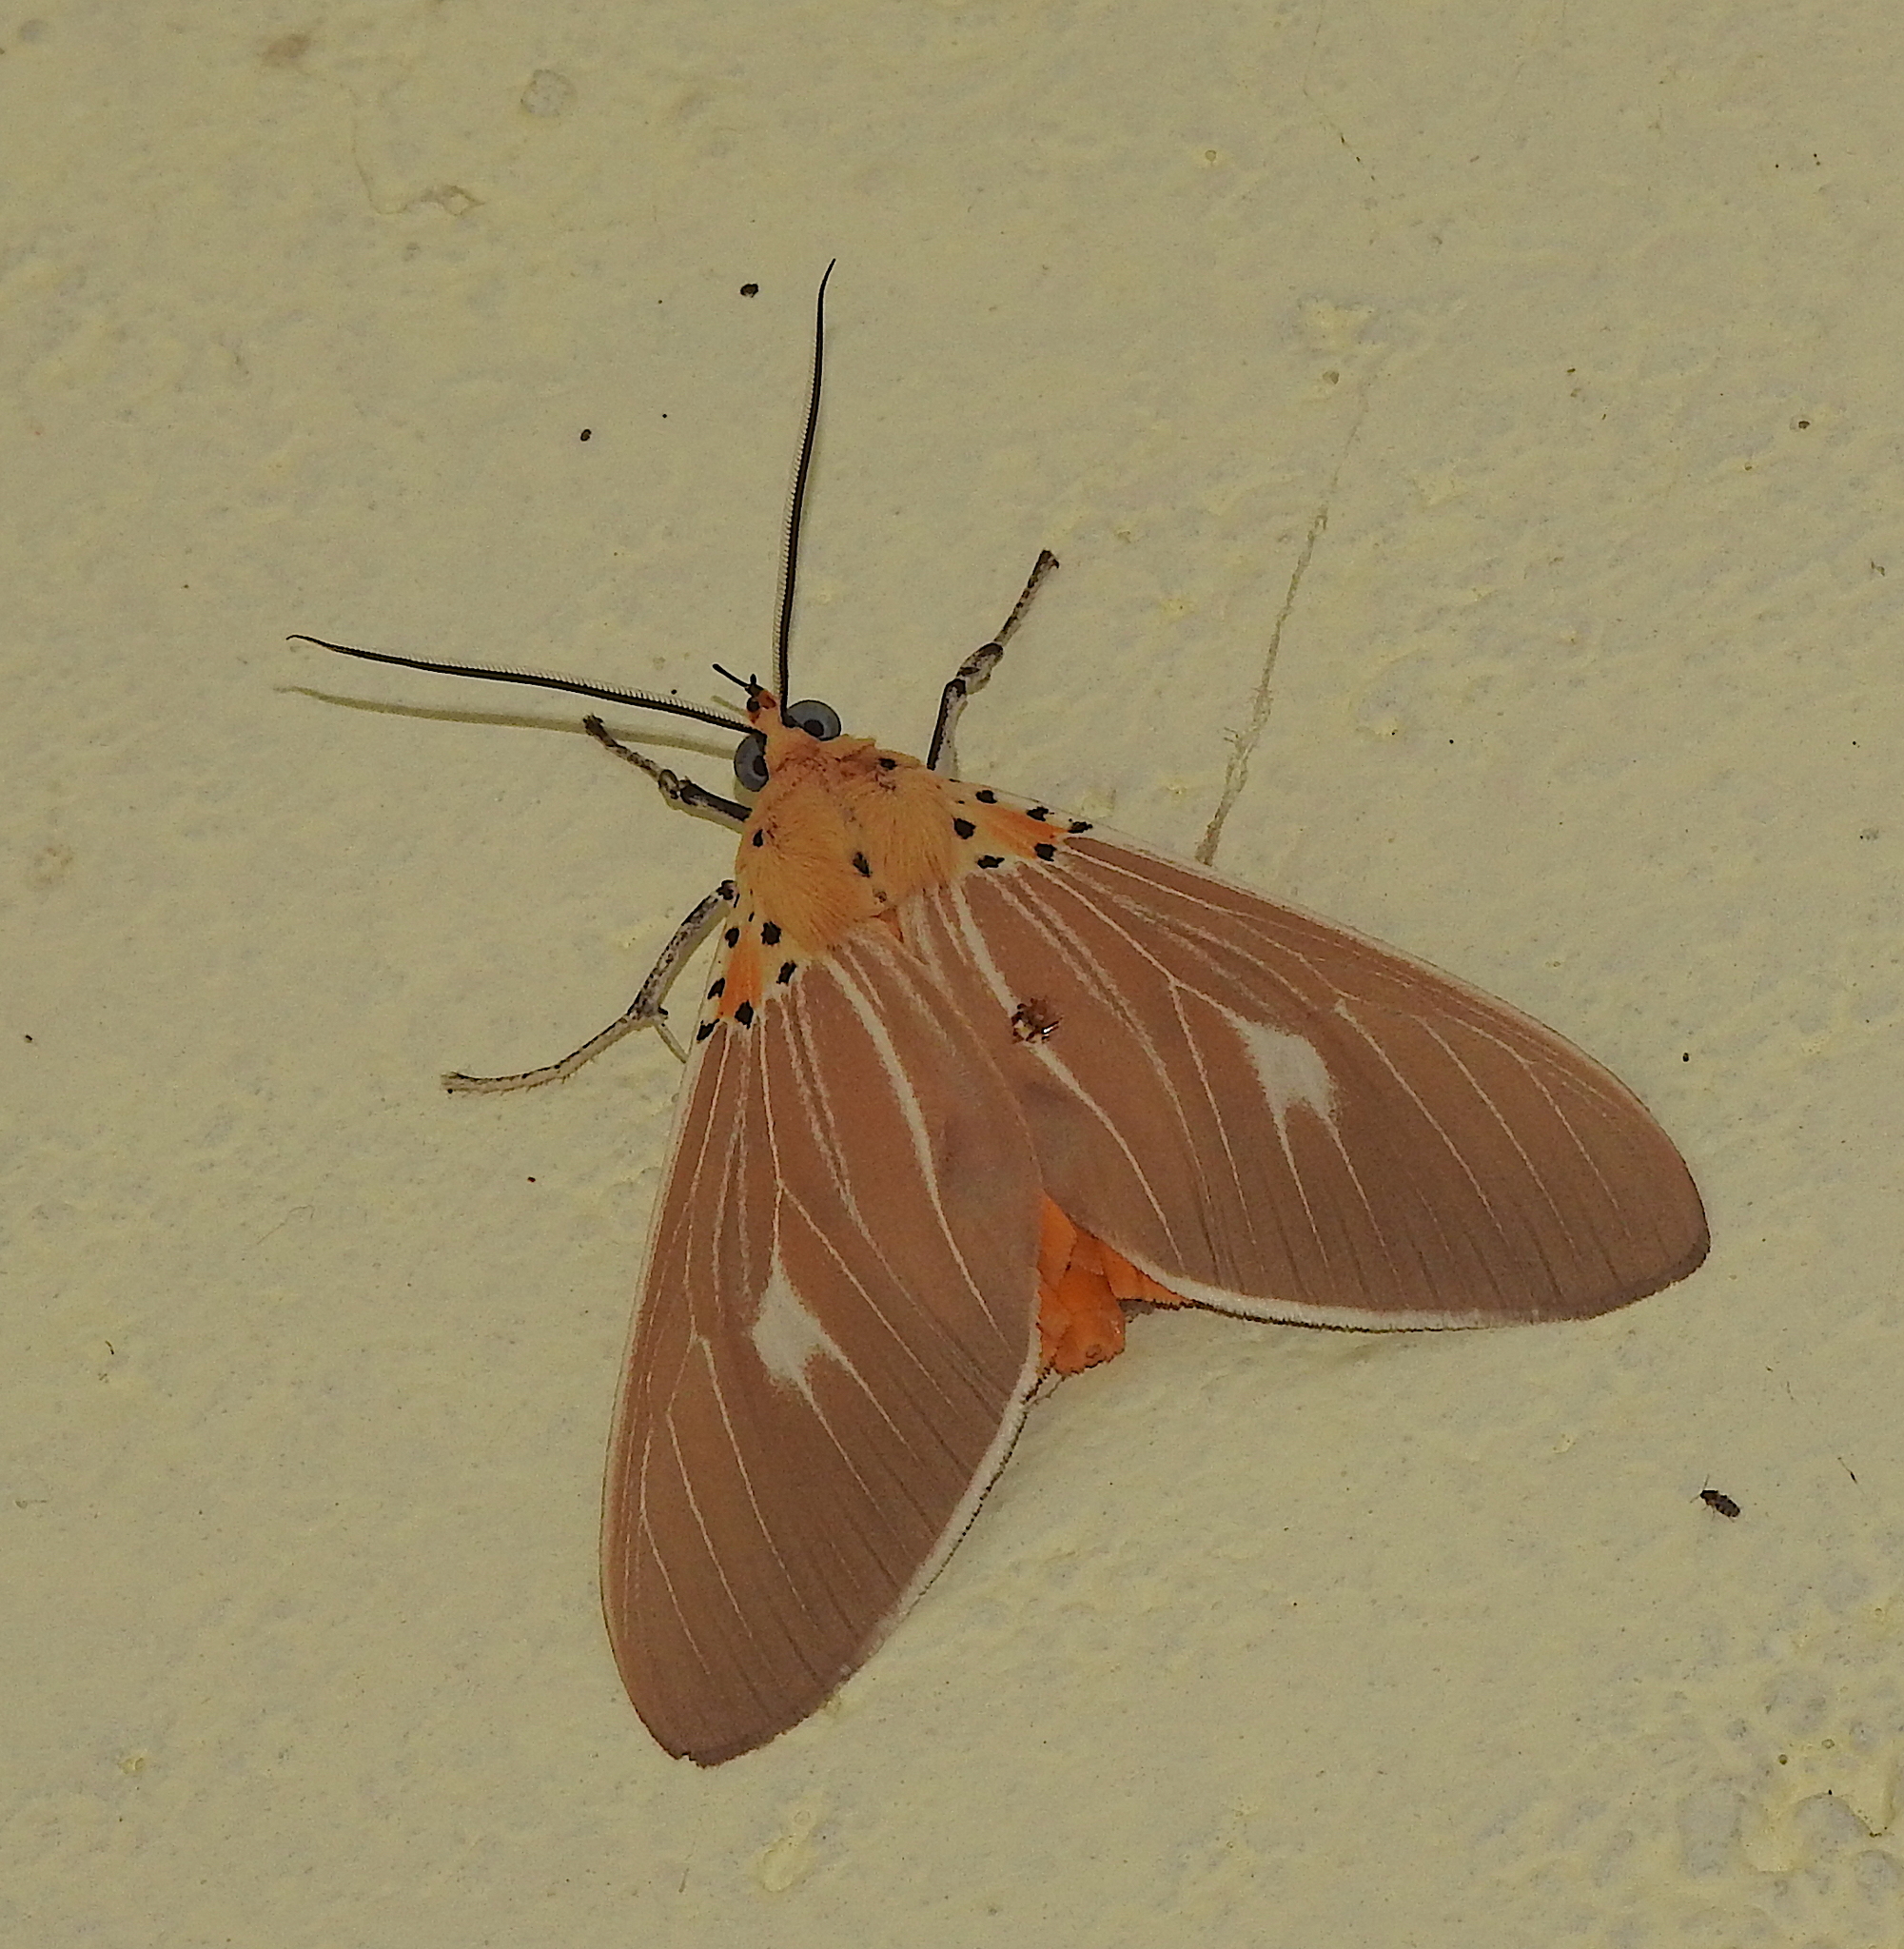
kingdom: Animalia
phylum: Arthropoda
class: Insecta
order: Lepidoptera
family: Erebidae
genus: Asota
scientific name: Asota producta
